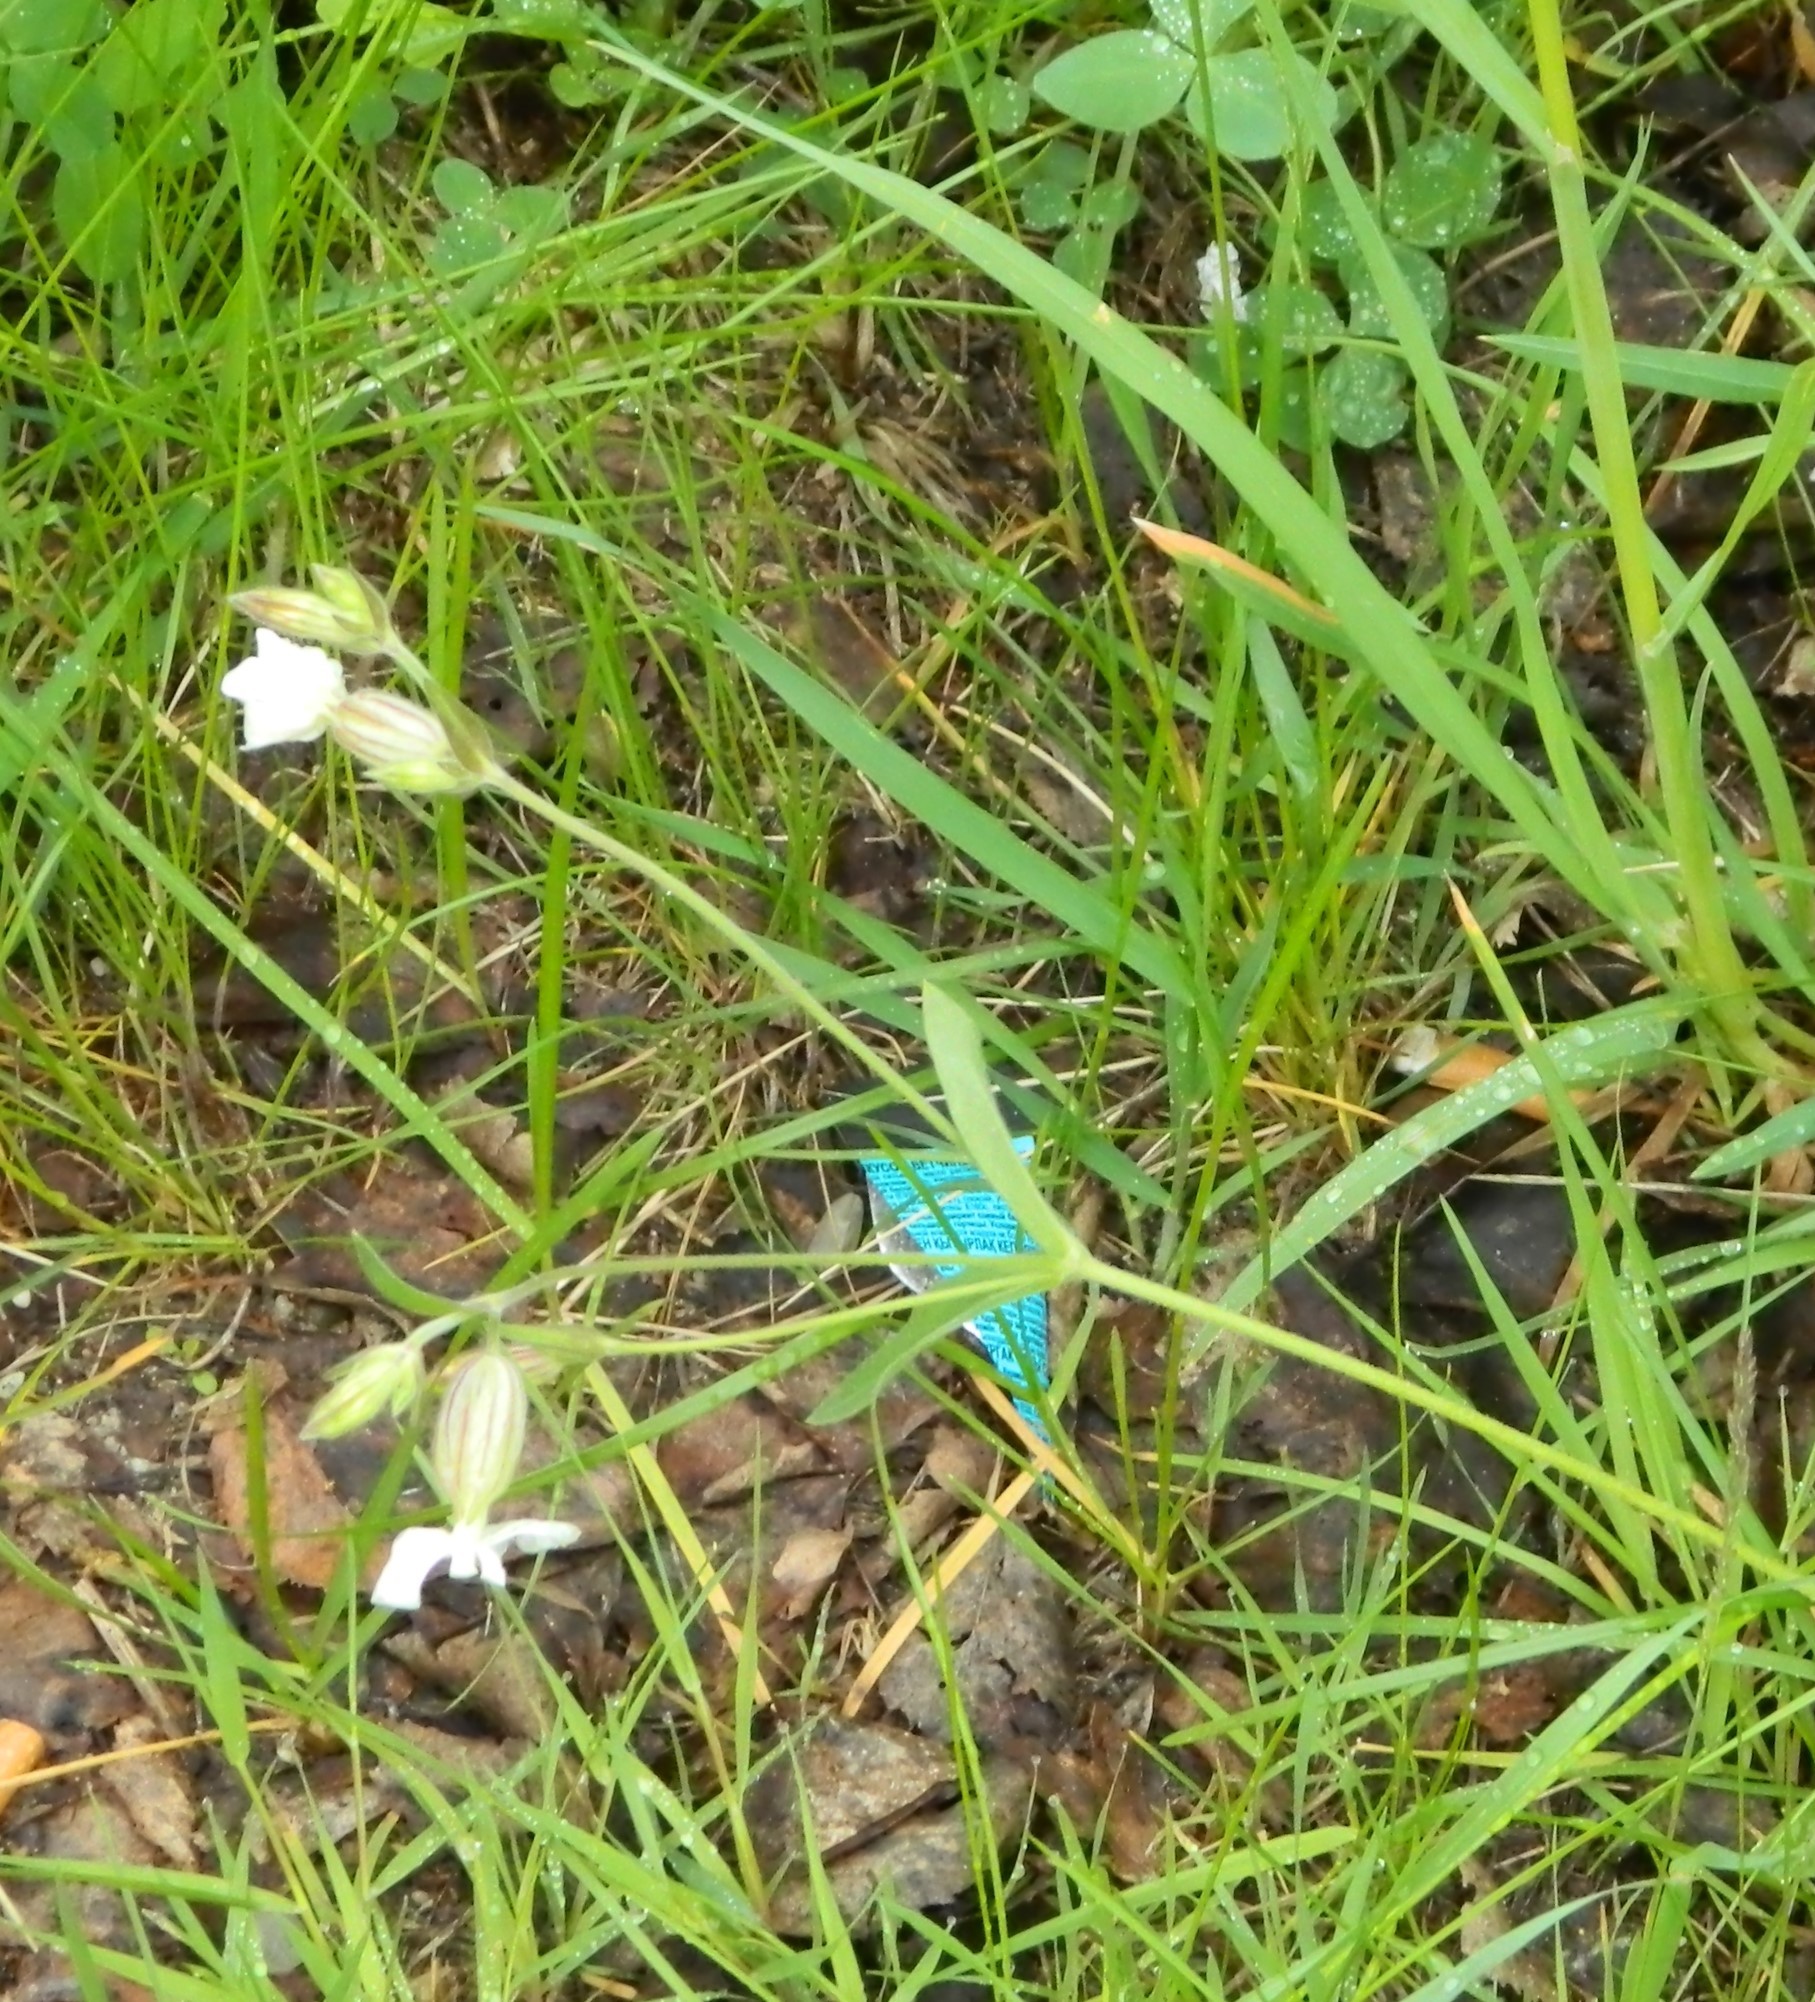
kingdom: Plantae
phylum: Tracheophyta
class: Magnoliopsida
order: Caryophyllales
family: Caryophyllaceae
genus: Silene
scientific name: Silene latifolia
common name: White campion
